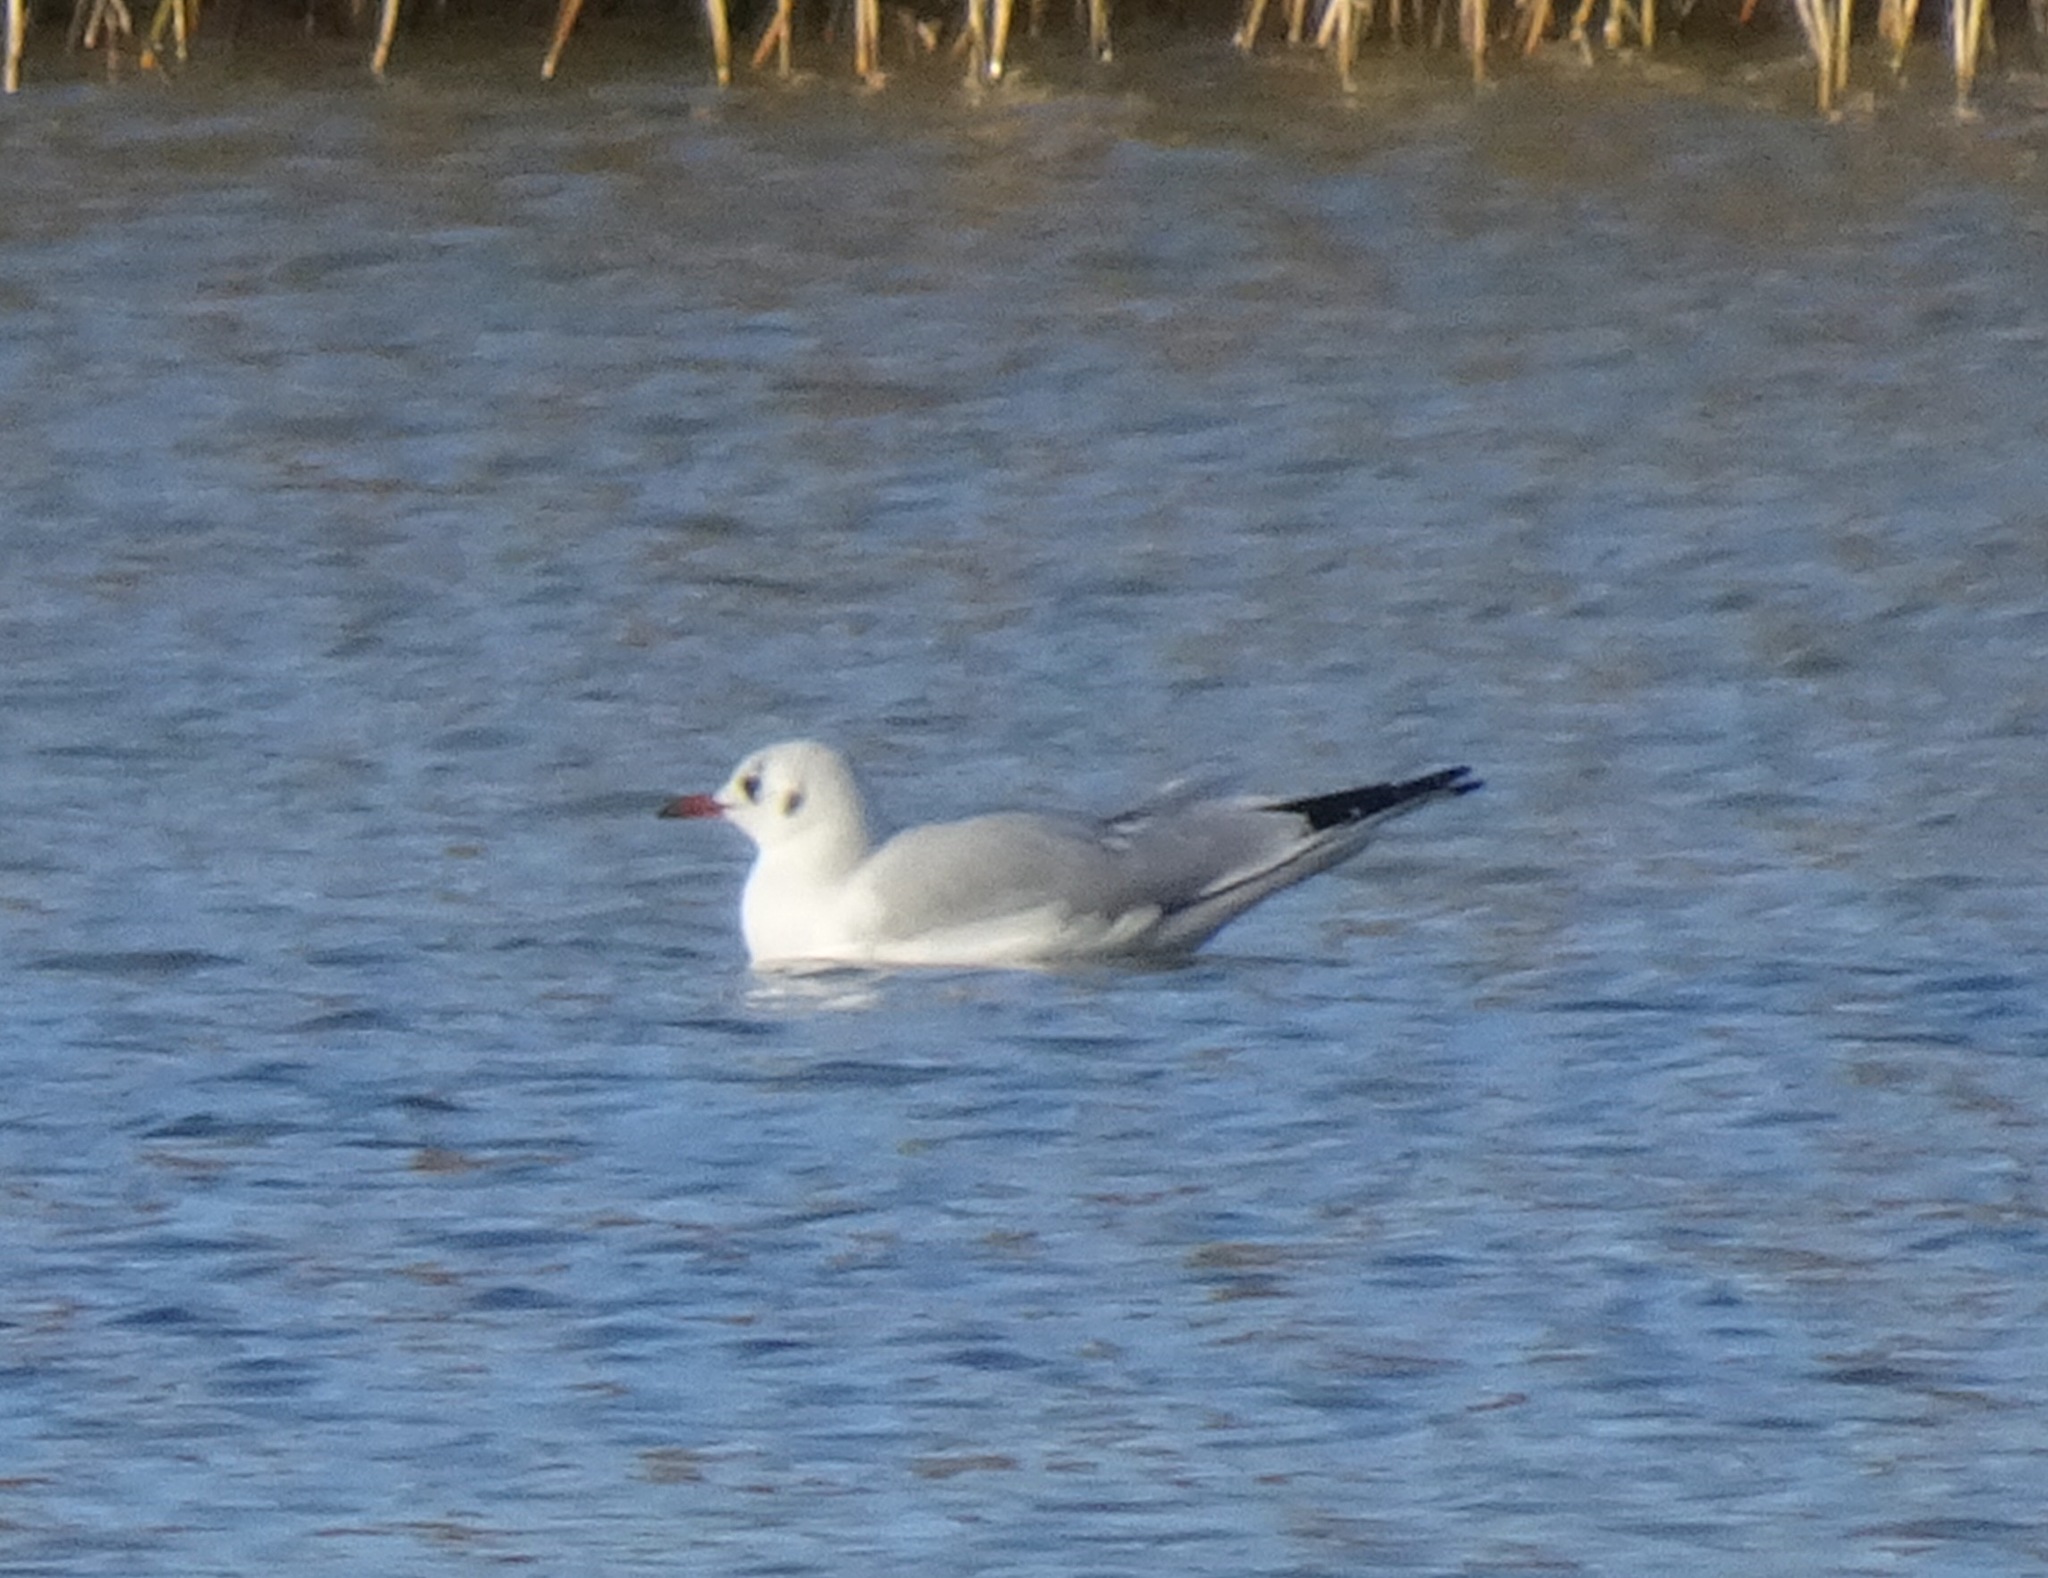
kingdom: Animalia
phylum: Chordata
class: Aves
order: Charadriiformes
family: Laridae
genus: Chroicocephalus
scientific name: Chroicocephalus ridibundus
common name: Black-headed gull
